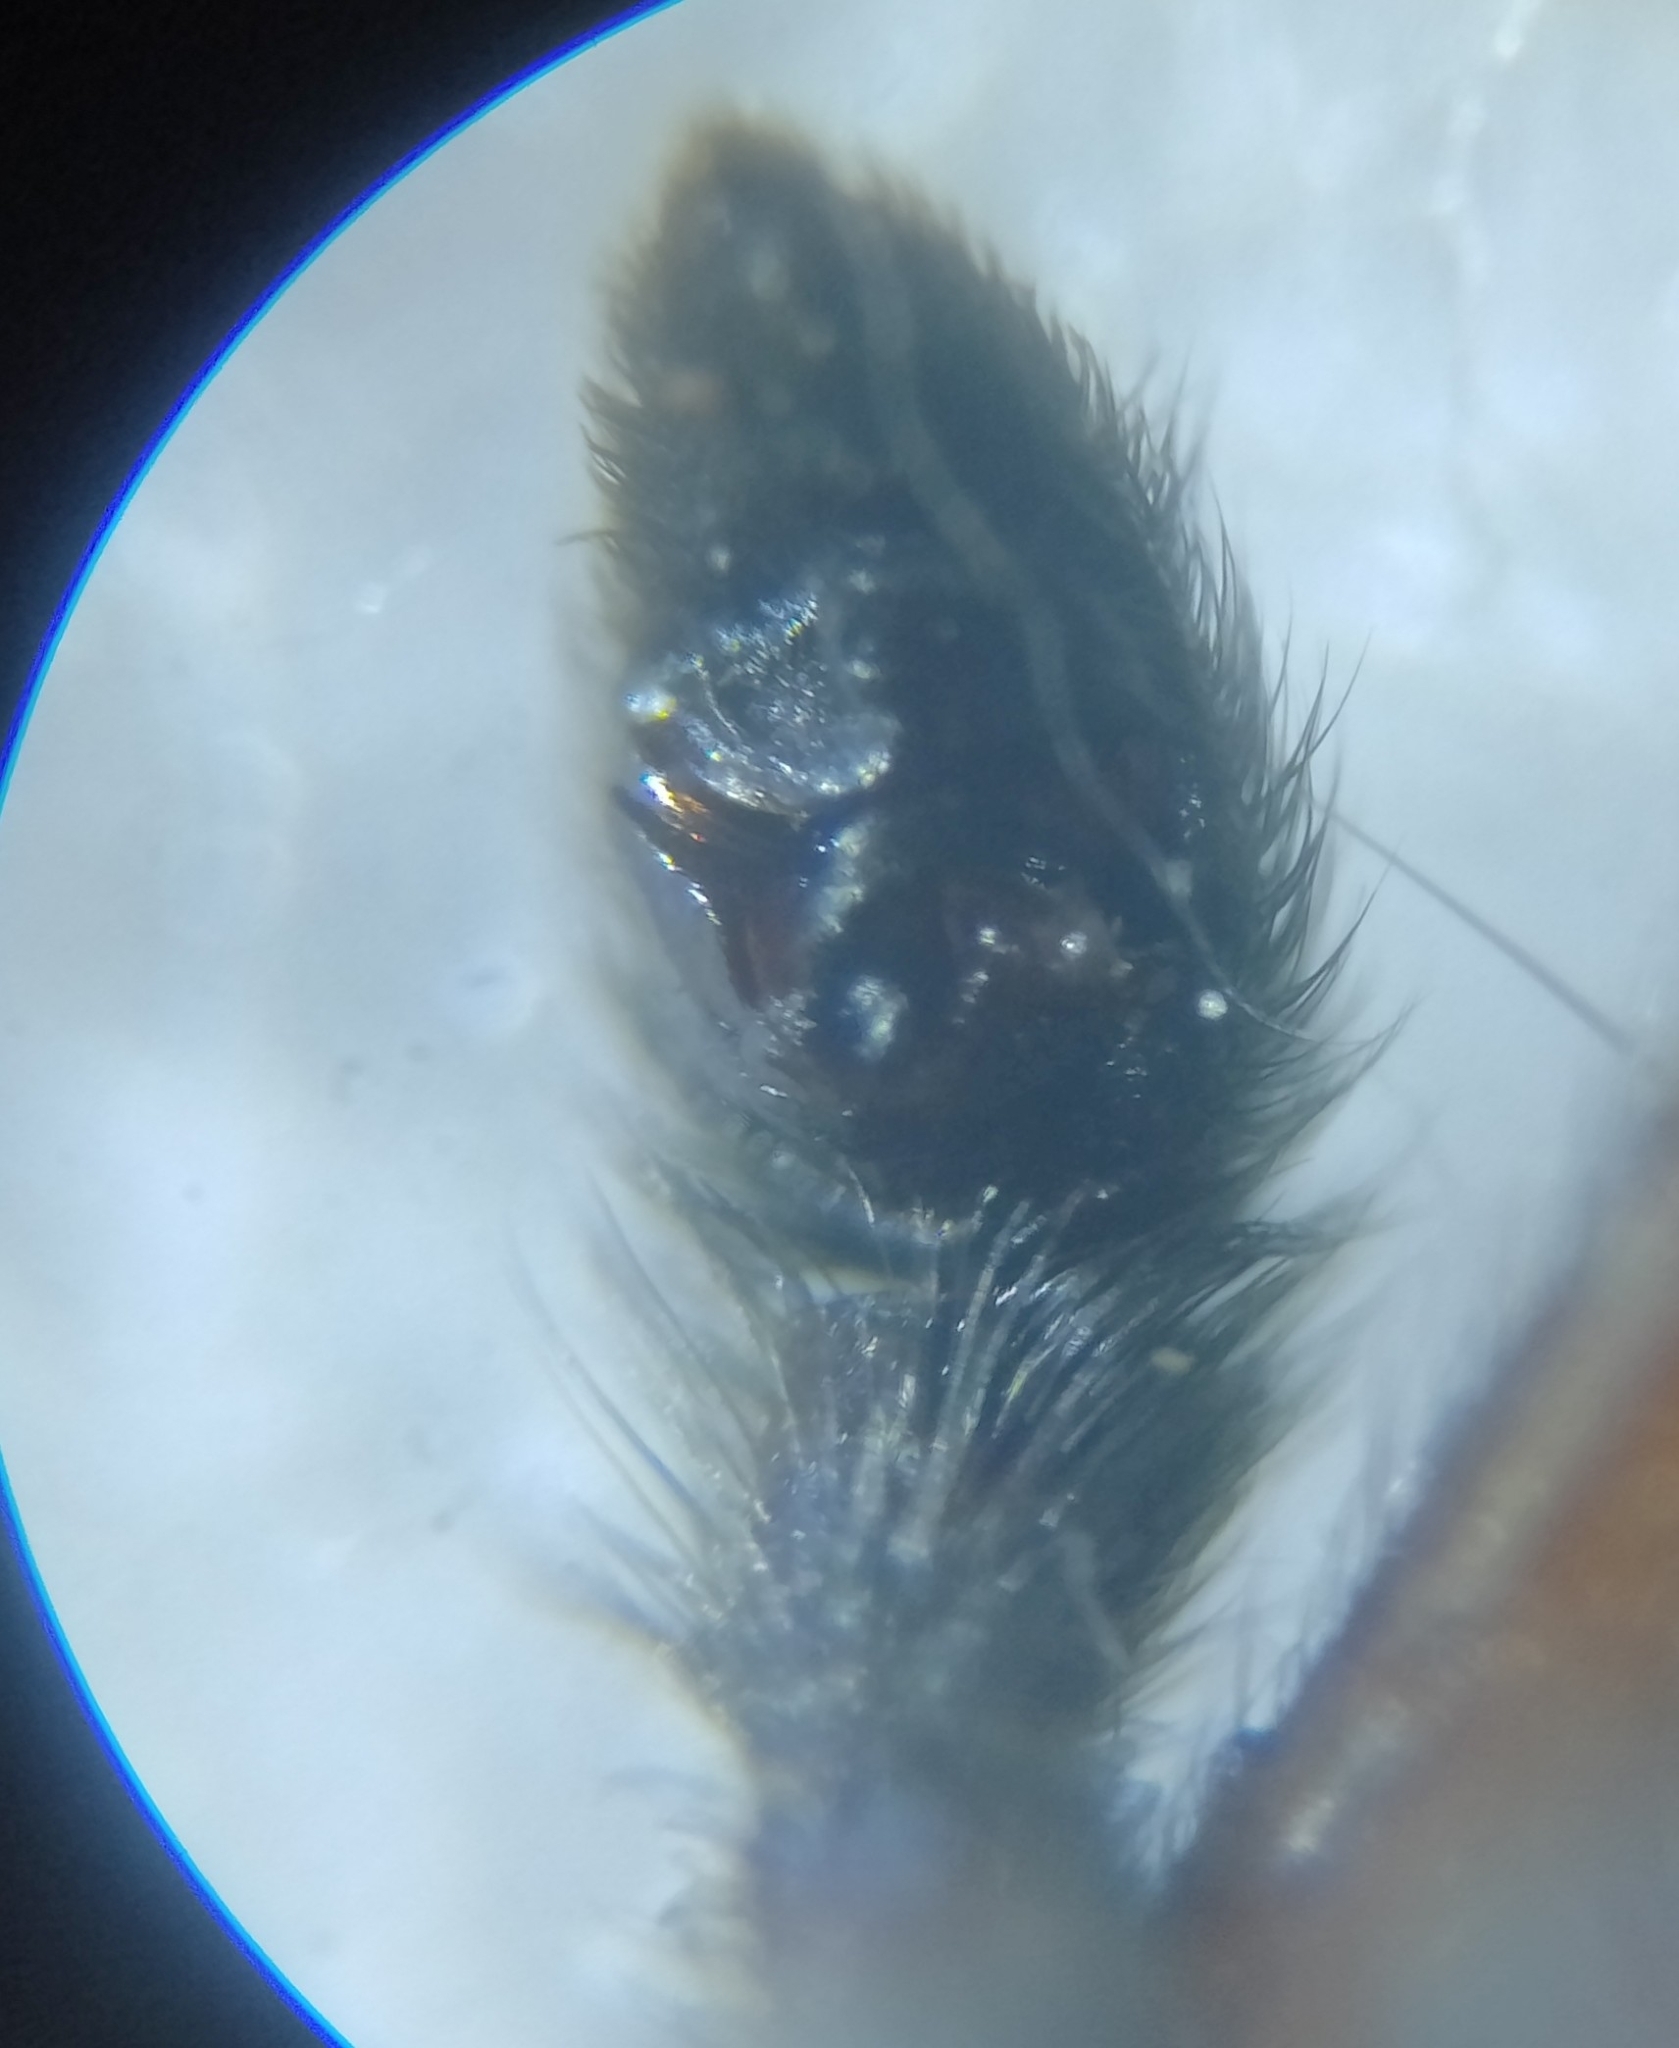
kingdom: Animalia
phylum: Arthropoda
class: Arachnida
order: Araneae
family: Lycosidae
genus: Pardosa
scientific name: Pardosa paludicola
